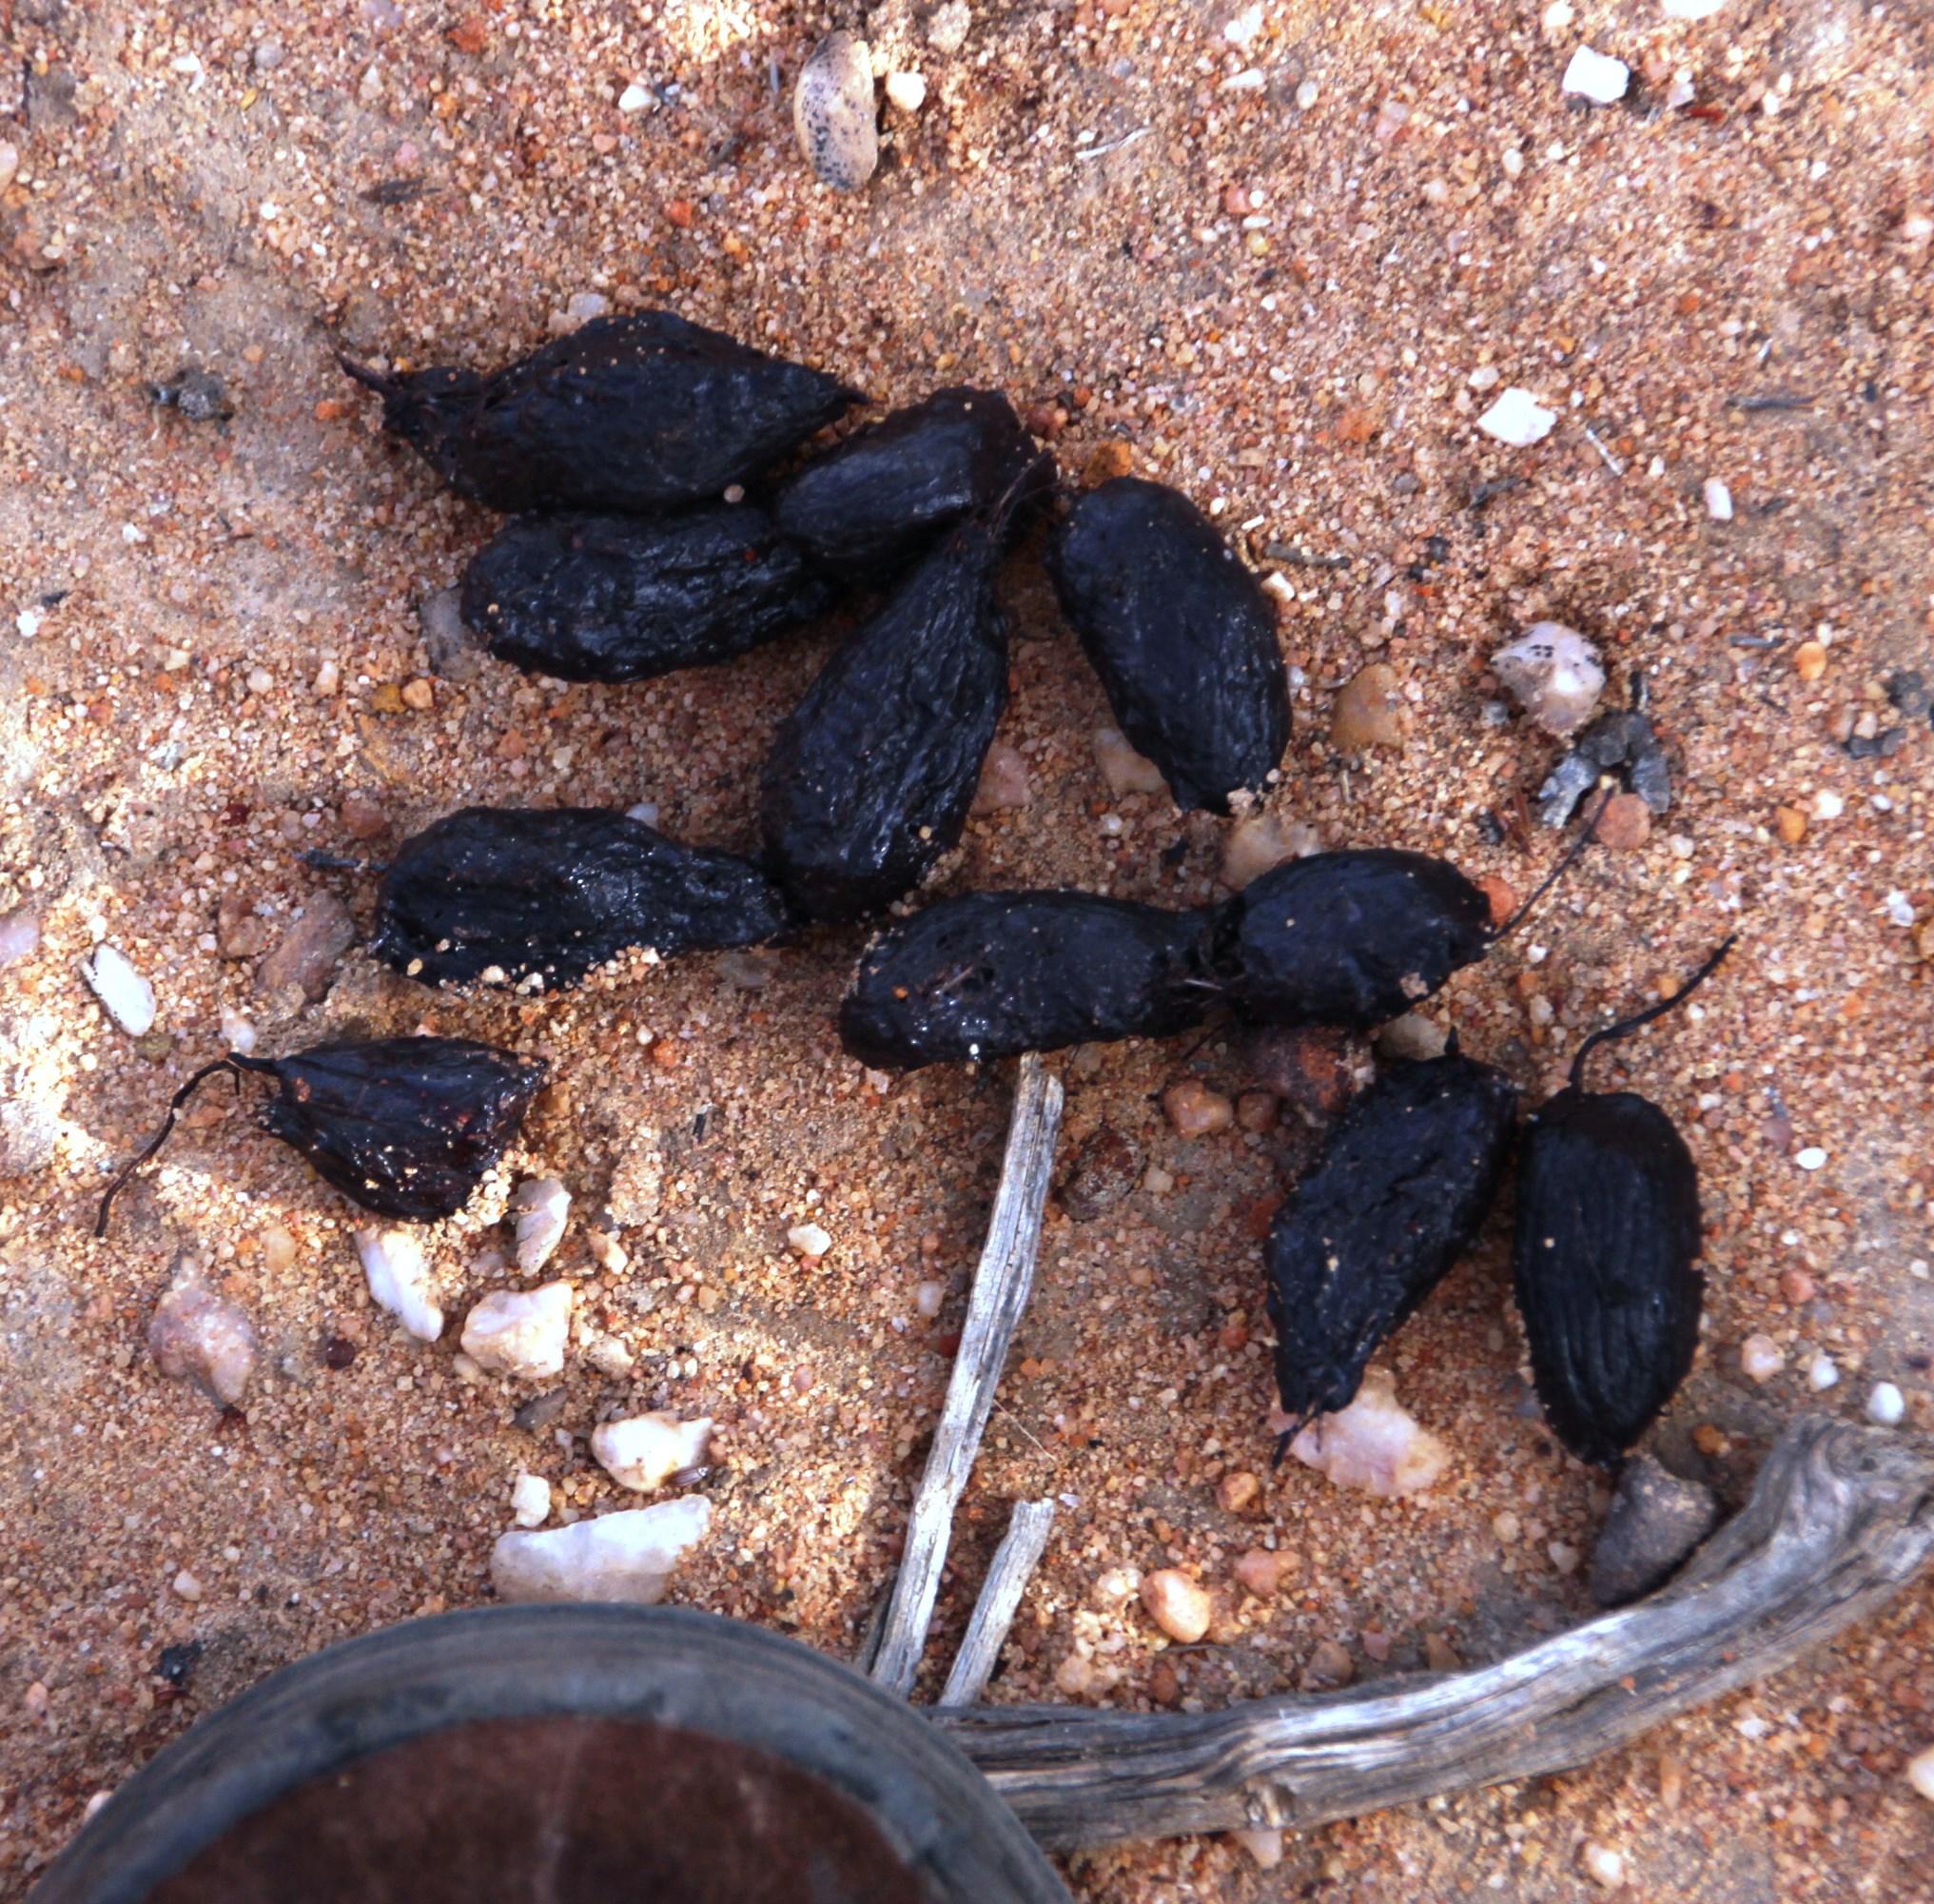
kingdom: Animalia
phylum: Chordata
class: Mammalia
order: Rodentia
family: Hystricidae
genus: Hystrix
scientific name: Hystrix africaeaustralis
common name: Cape porcupine
